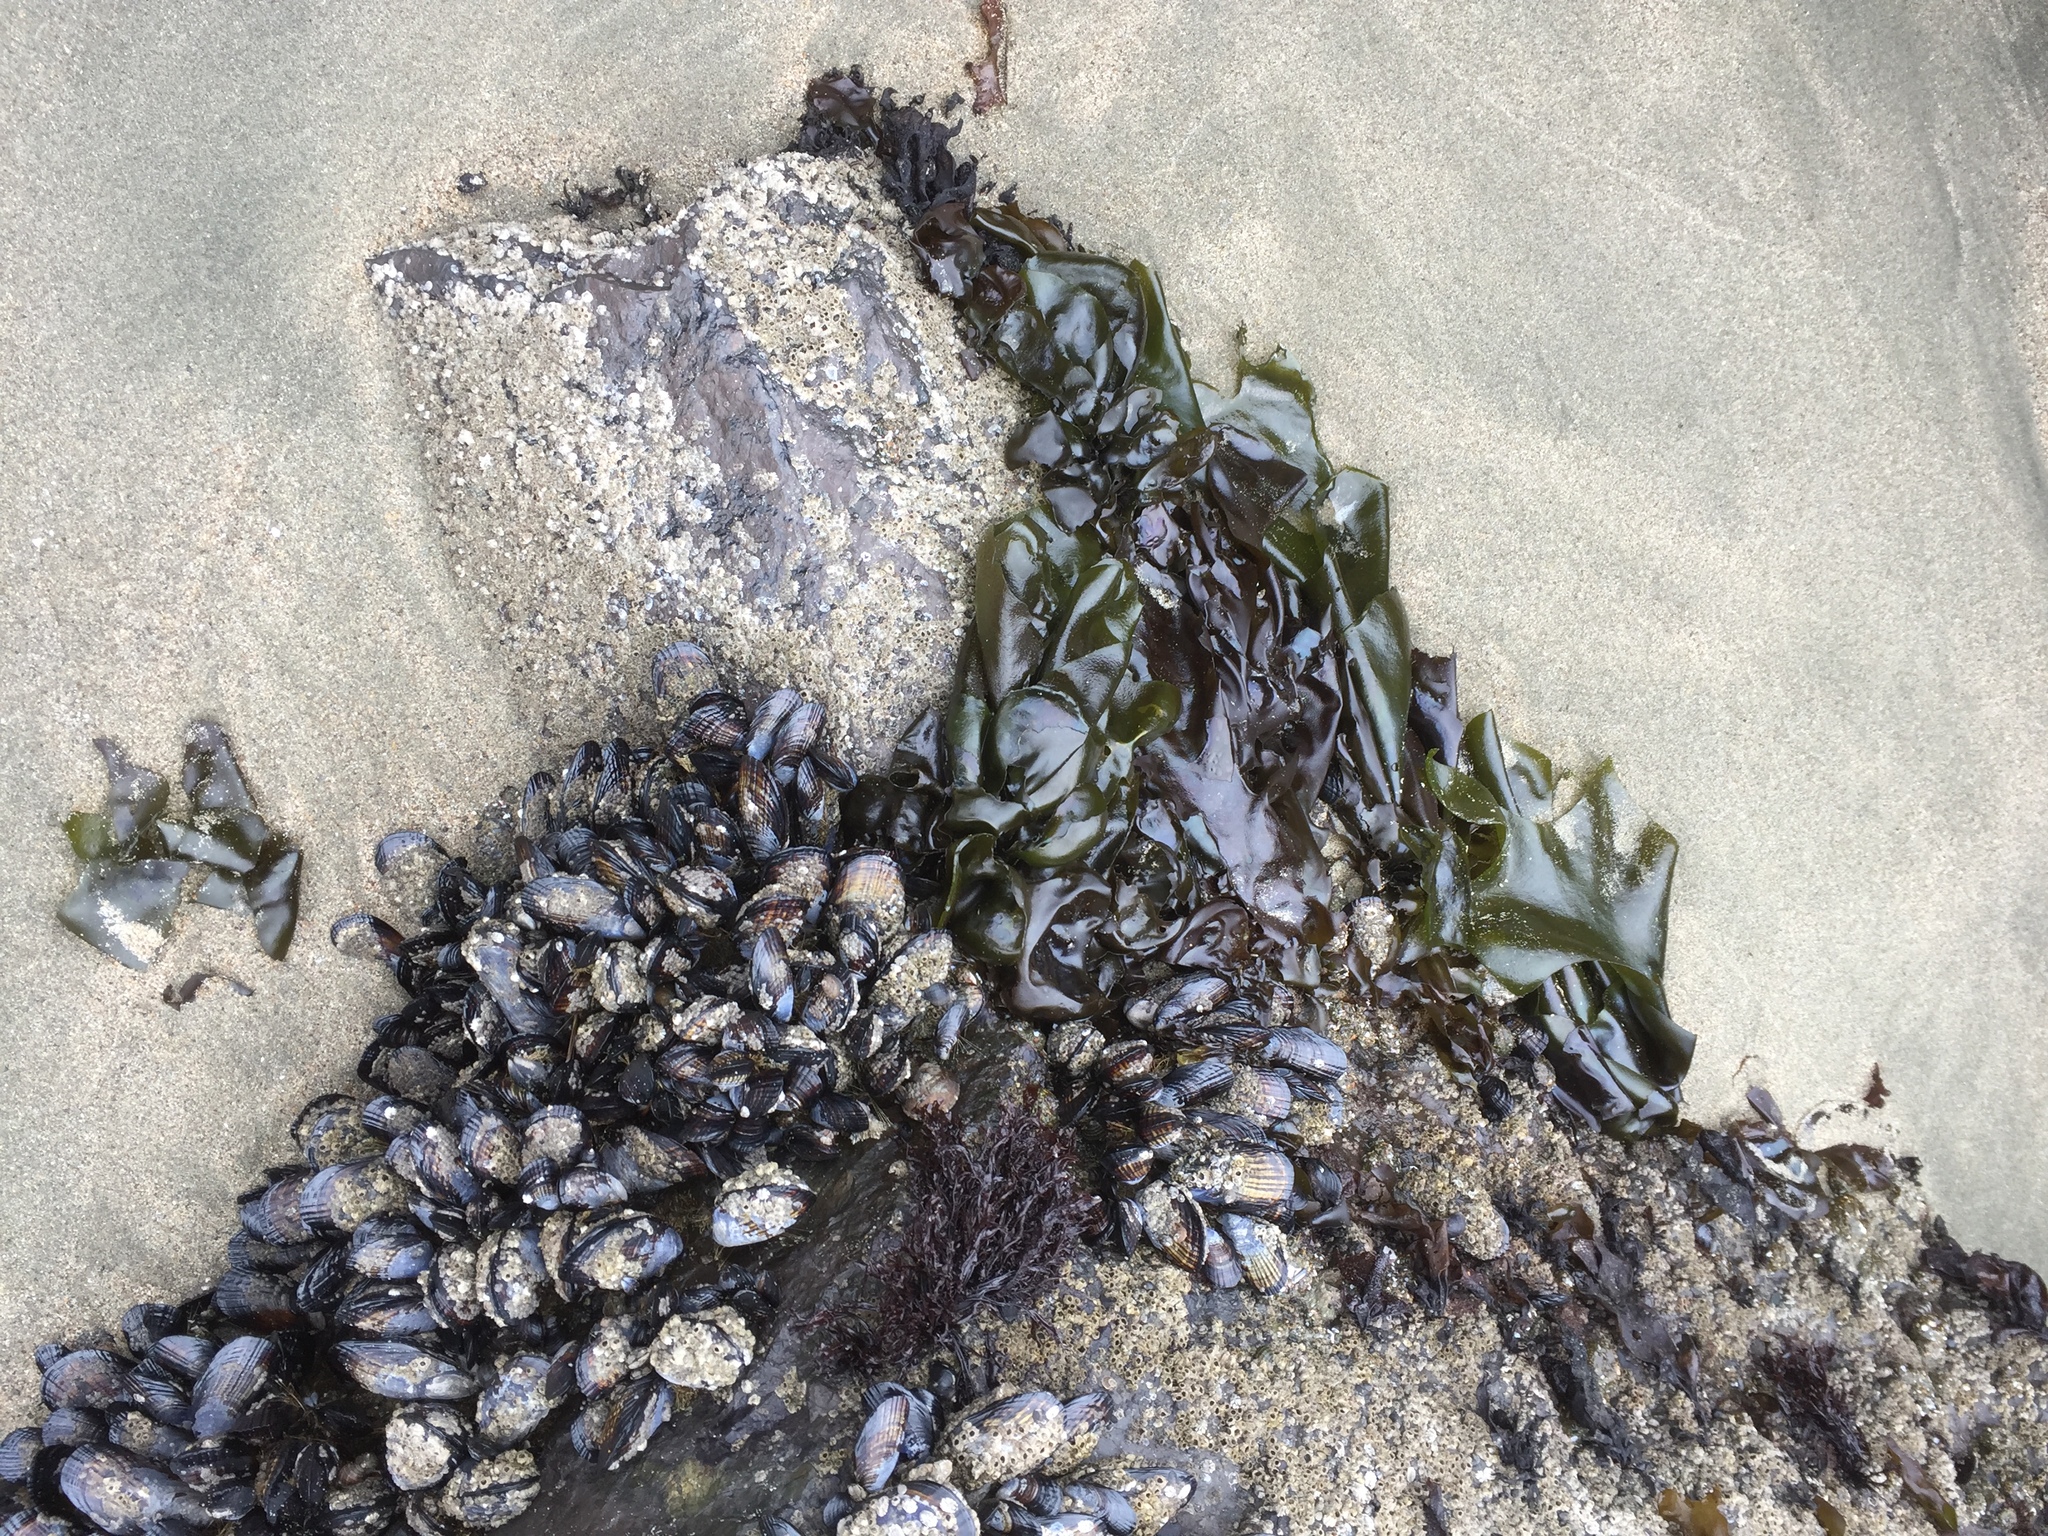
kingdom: Plantae
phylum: Rhodophyta
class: Florideophyceae
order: Gigartinales
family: Gigartinaceae
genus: Mazzaella
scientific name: Mazzaella flaccida
